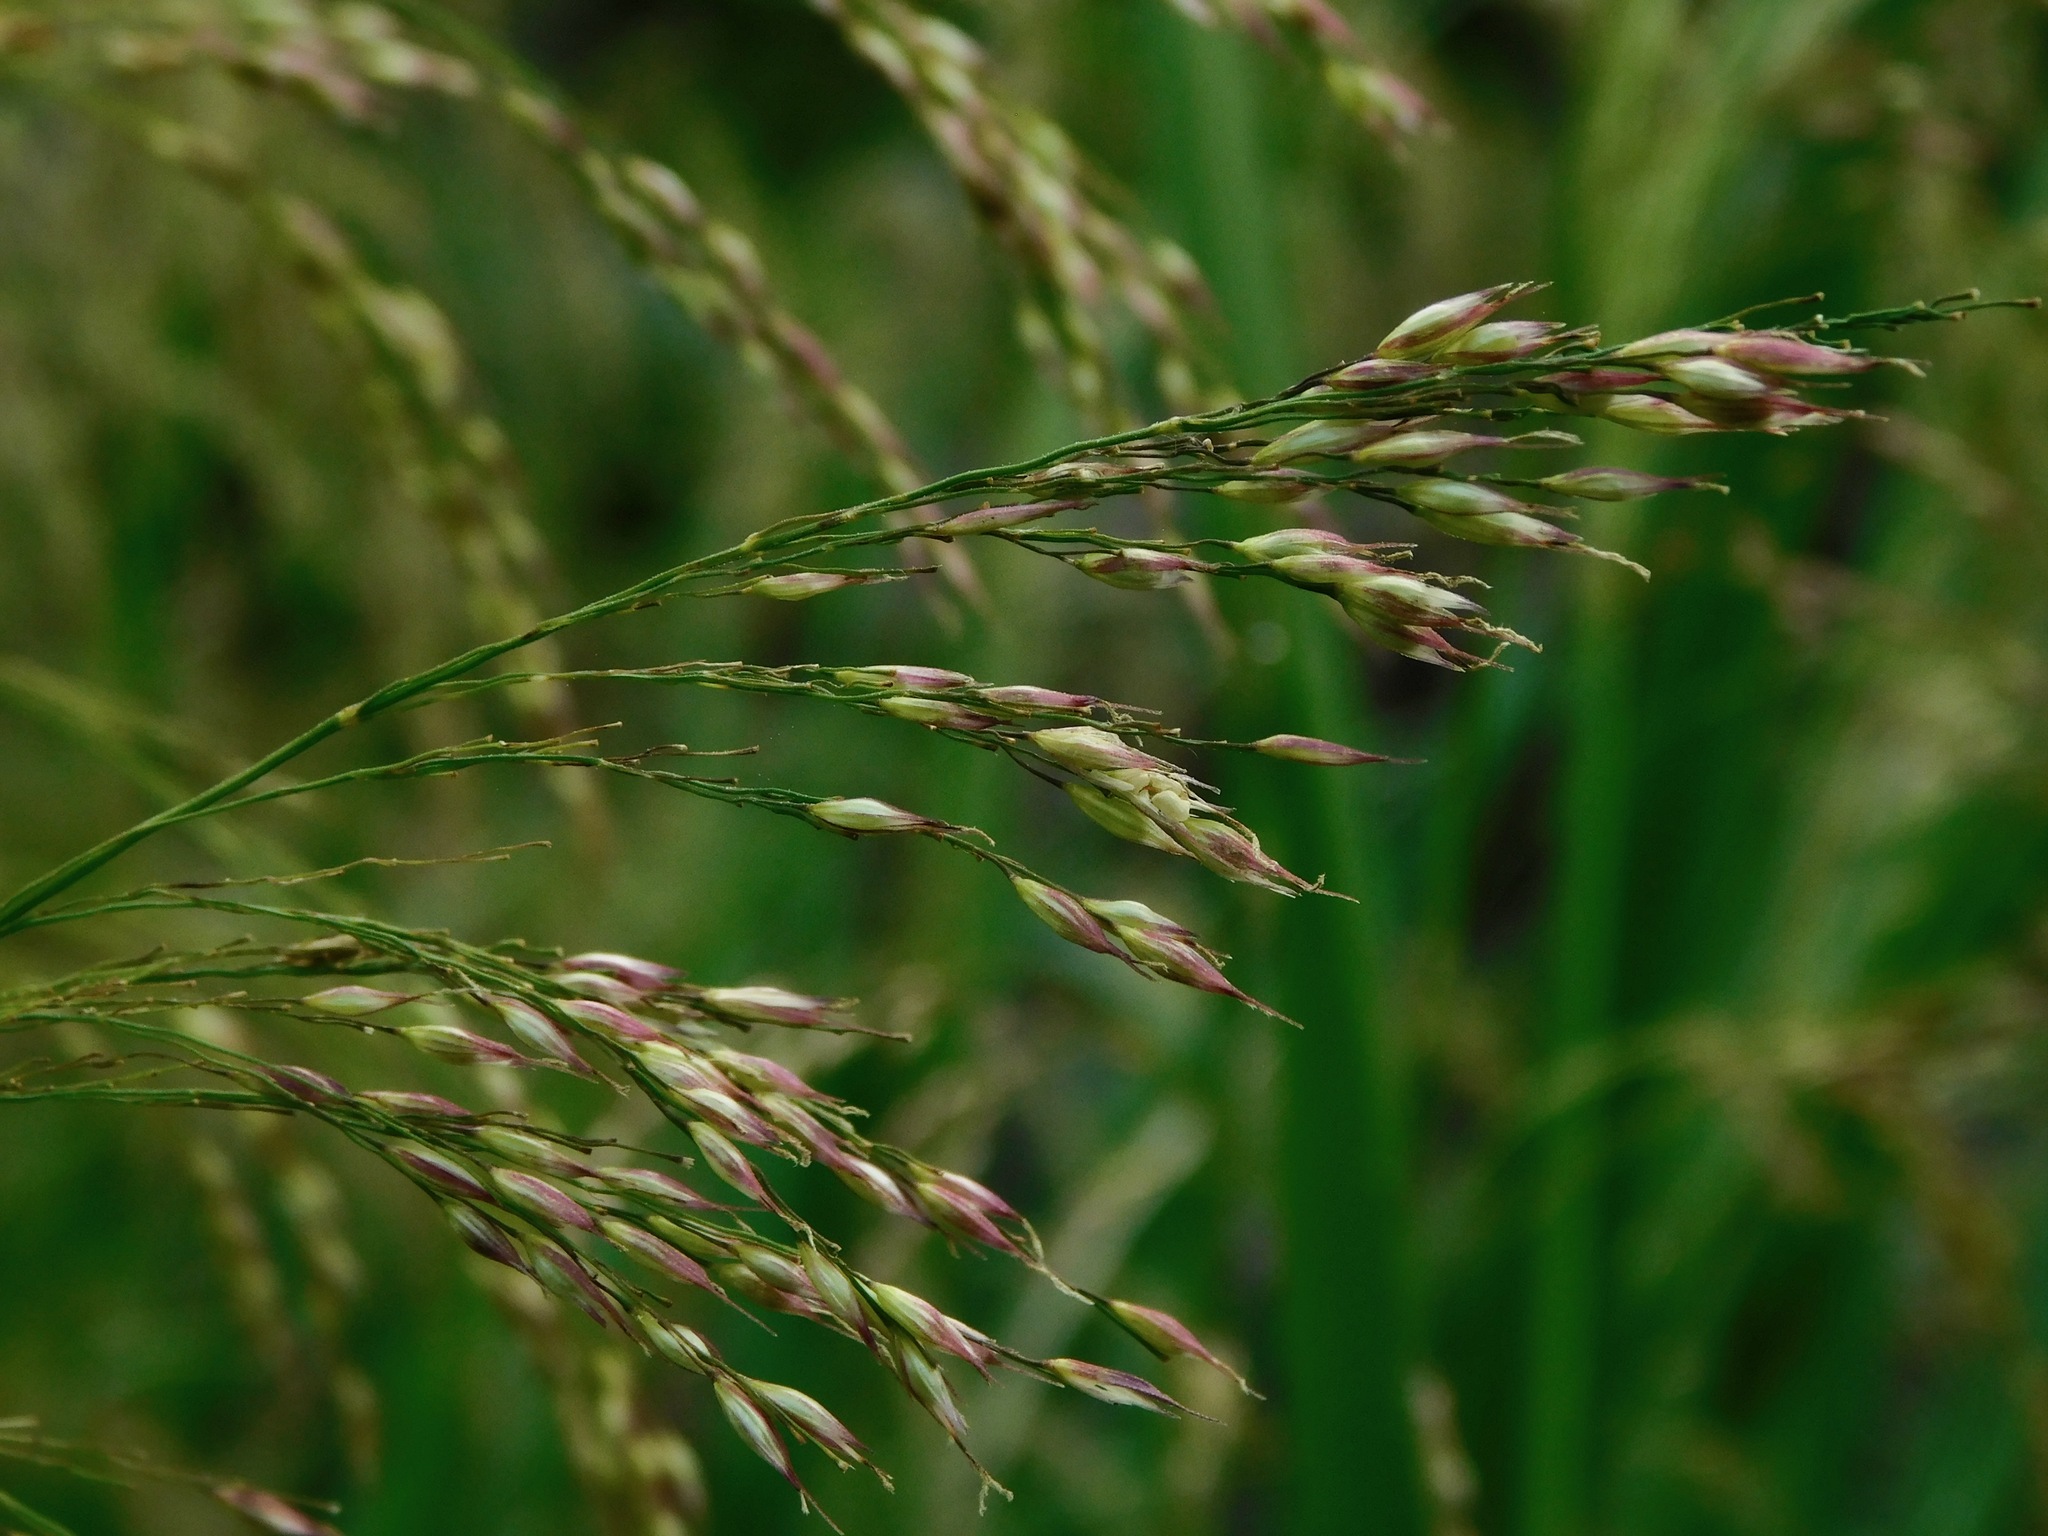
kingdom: Plantae
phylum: Tracheophyta
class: Liliopsida
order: Poales
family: Poaceae
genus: Zizaniopsis
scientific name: Zizaniopsis miliacea
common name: Giant-cutgrass
